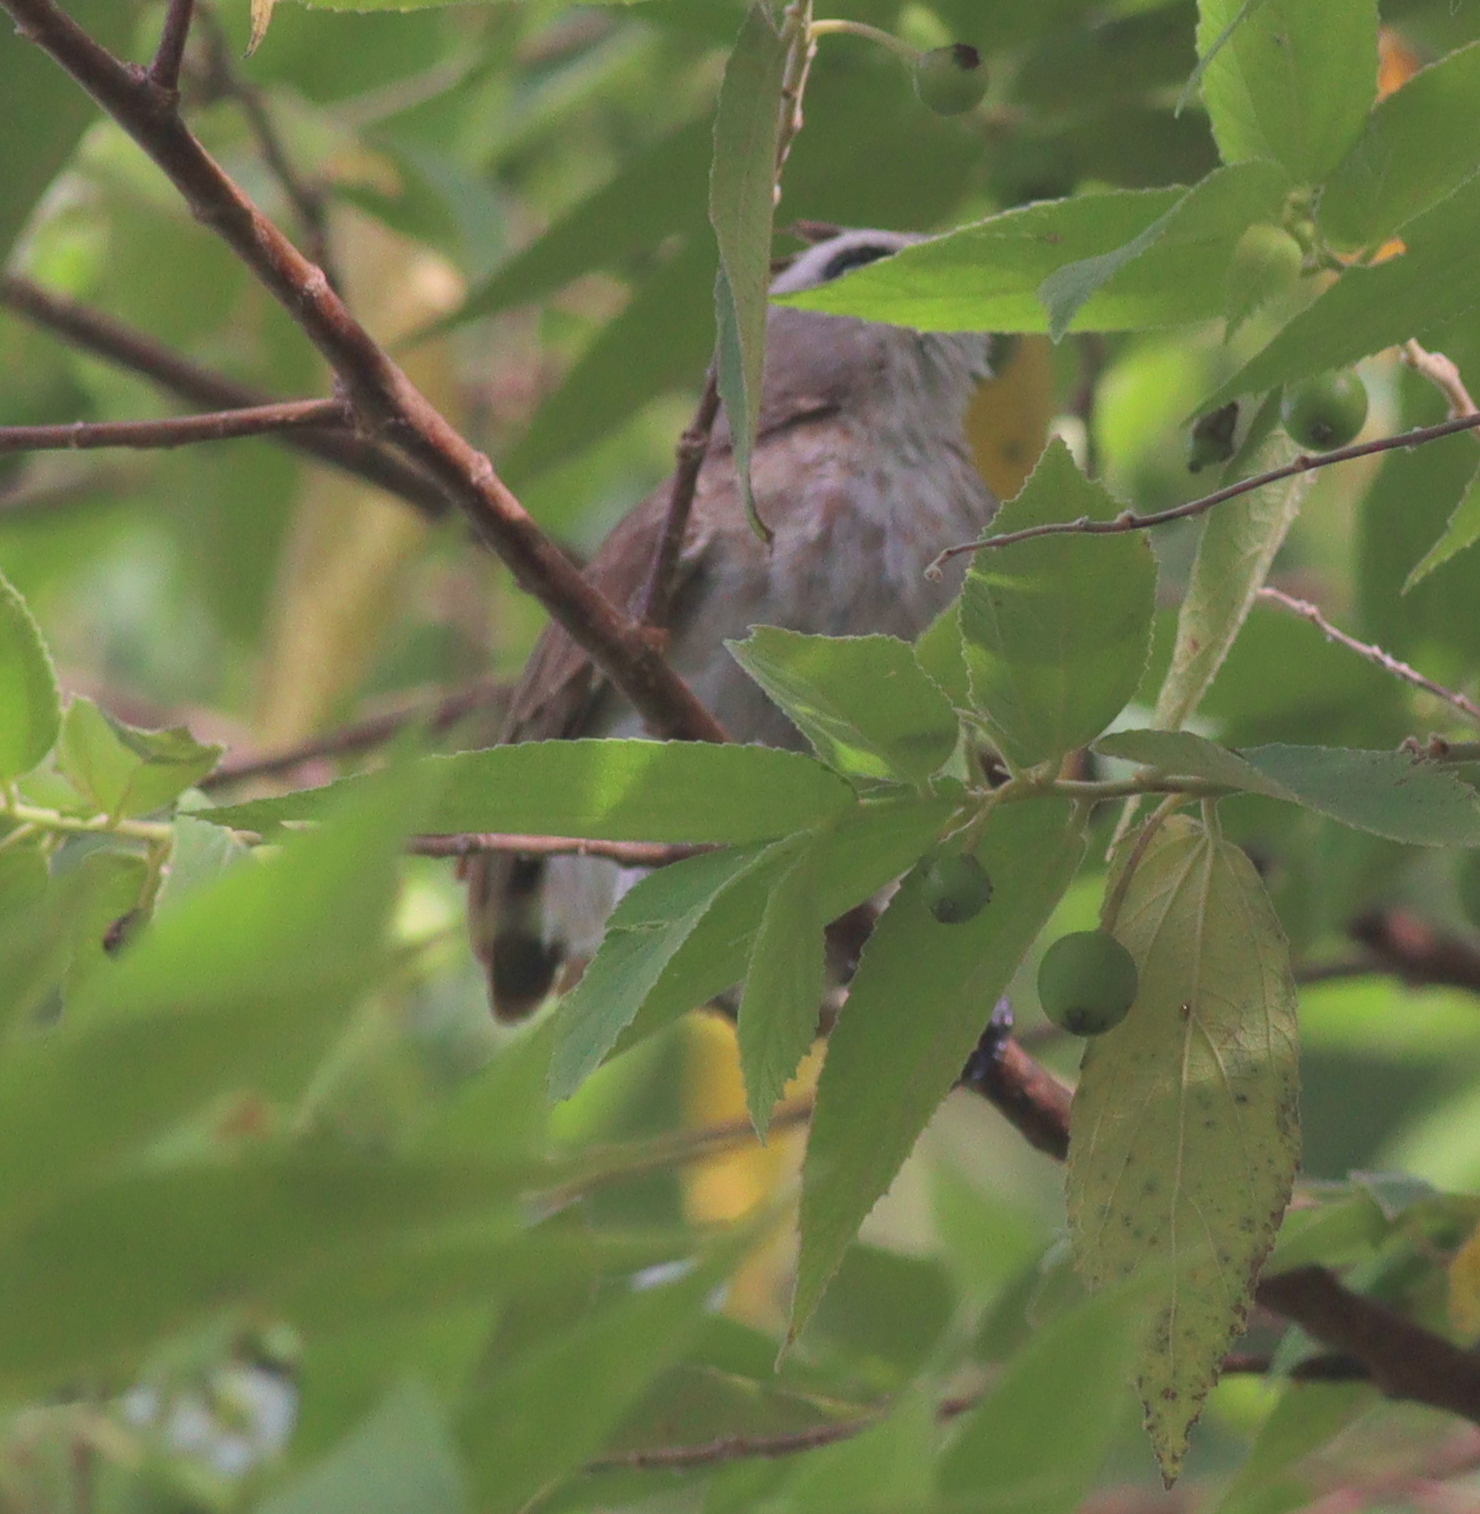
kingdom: Animalia
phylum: Chordata
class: Aves
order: Passeriformes
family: Pycnonotidae
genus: Pycnonotus
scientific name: Pycnonotus goiavier
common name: Yellow-vented bulbul
